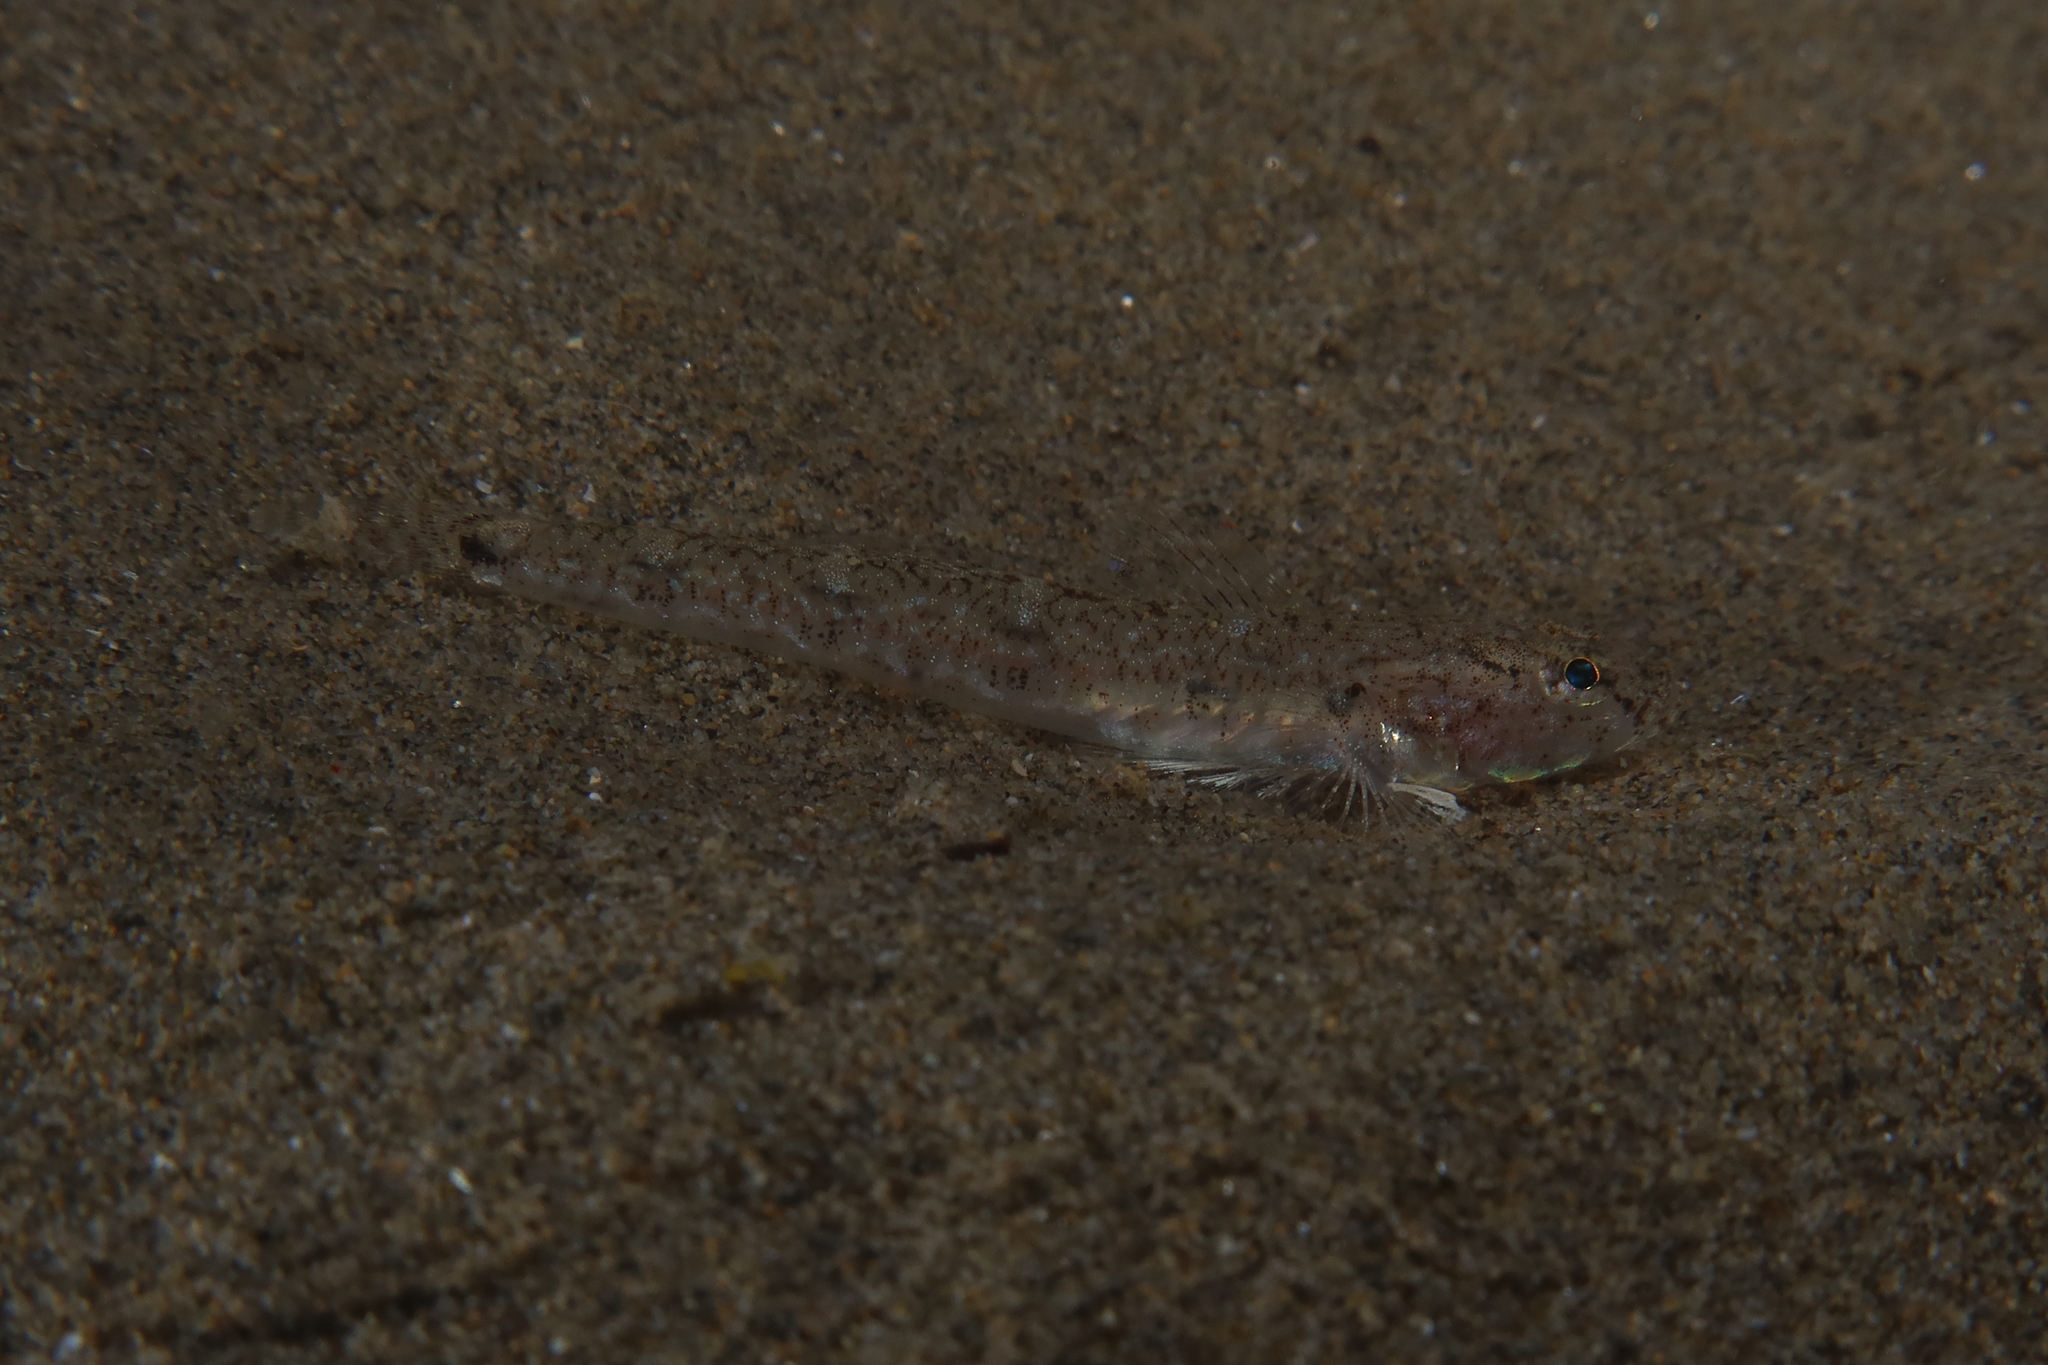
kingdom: Animalia
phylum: Chordata
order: Perciformes
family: Gobiidae
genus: Pomatoschistus
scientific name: Pomatoschistus marmoratus
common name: Marbled goby
